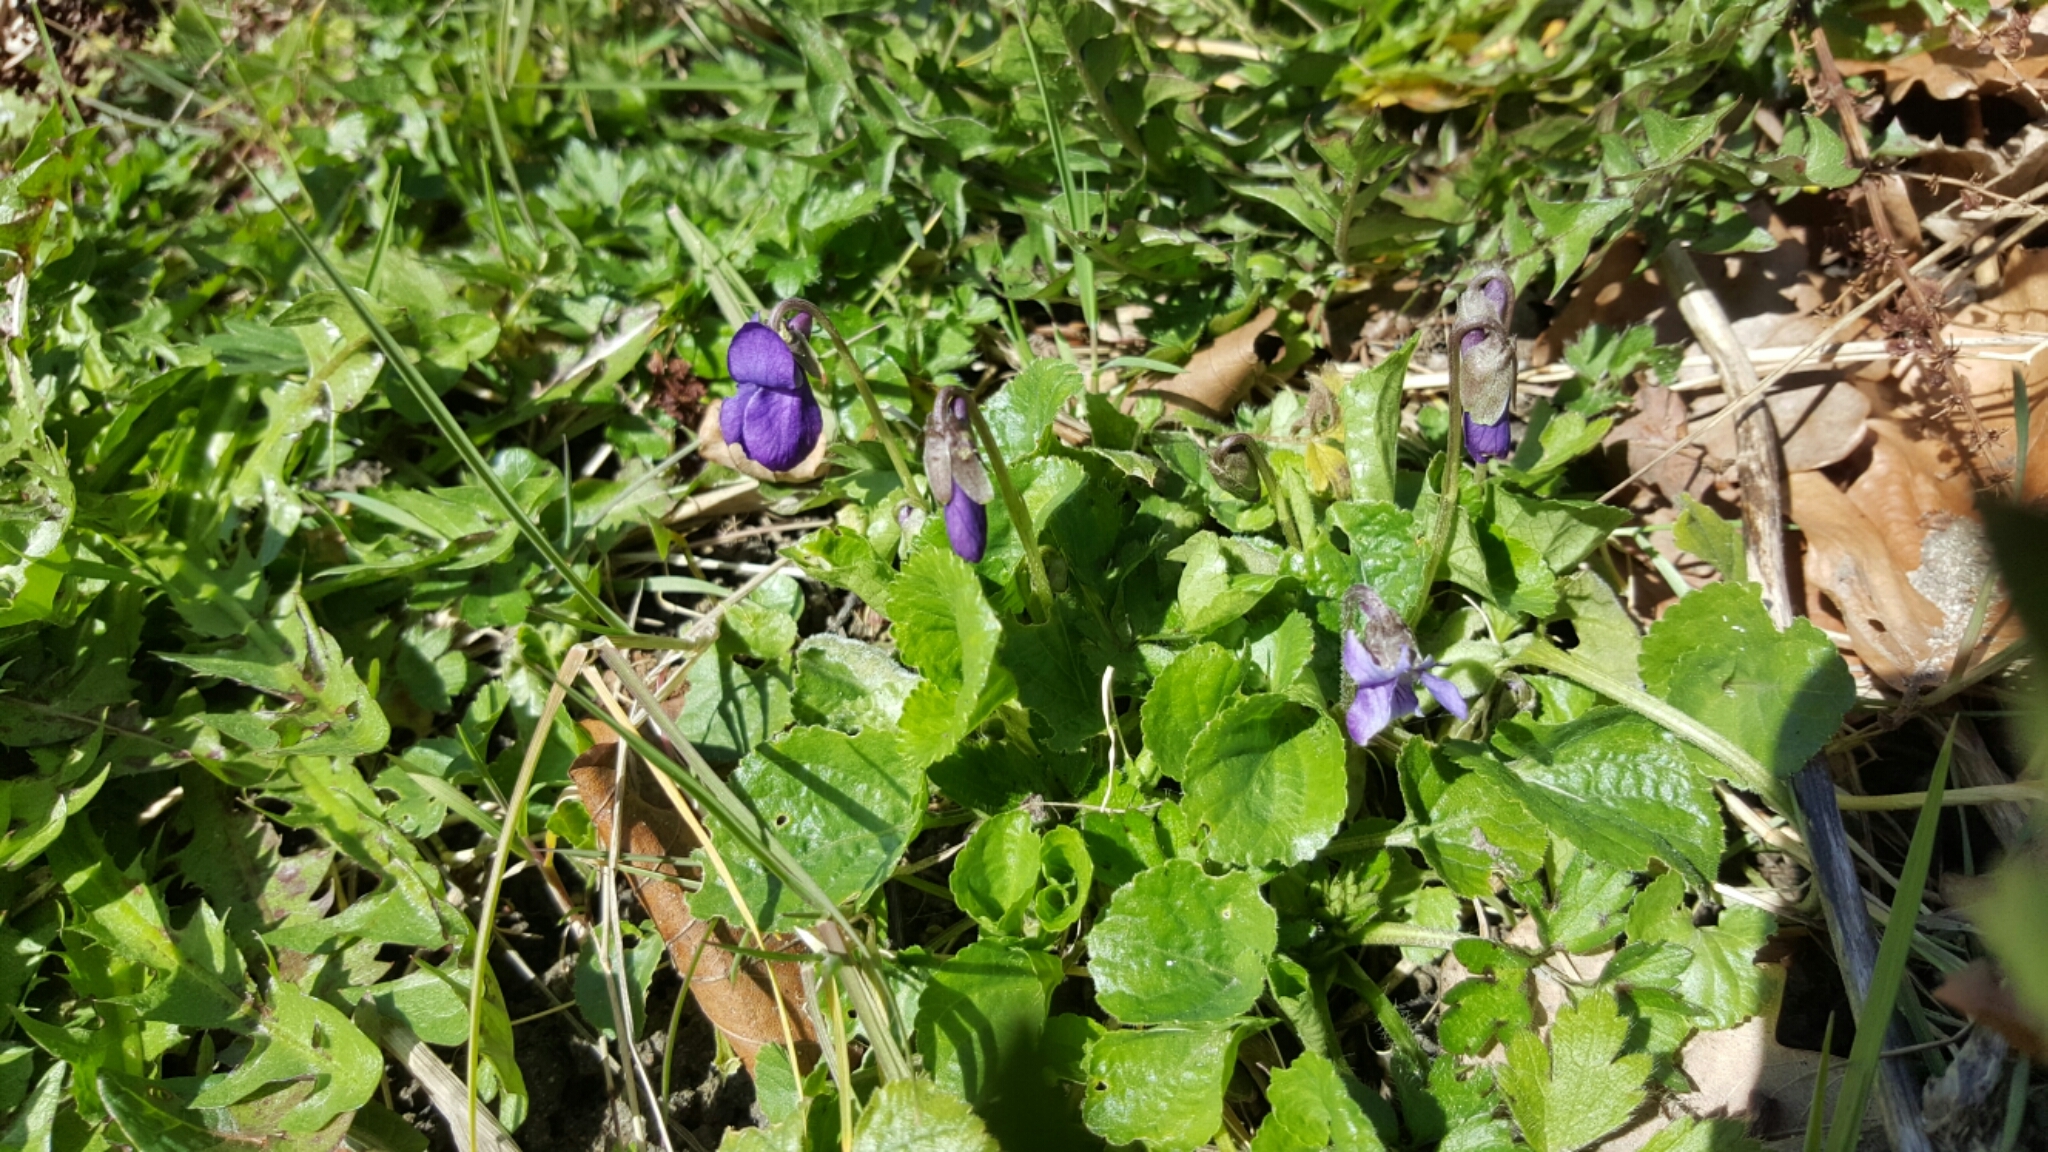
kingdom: Plantae
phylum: Tracheophyta
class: Magnoliopsida
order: Malpighiales
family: Violaceae
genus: Viola
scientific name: Viola odorata
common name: Sweet violet
